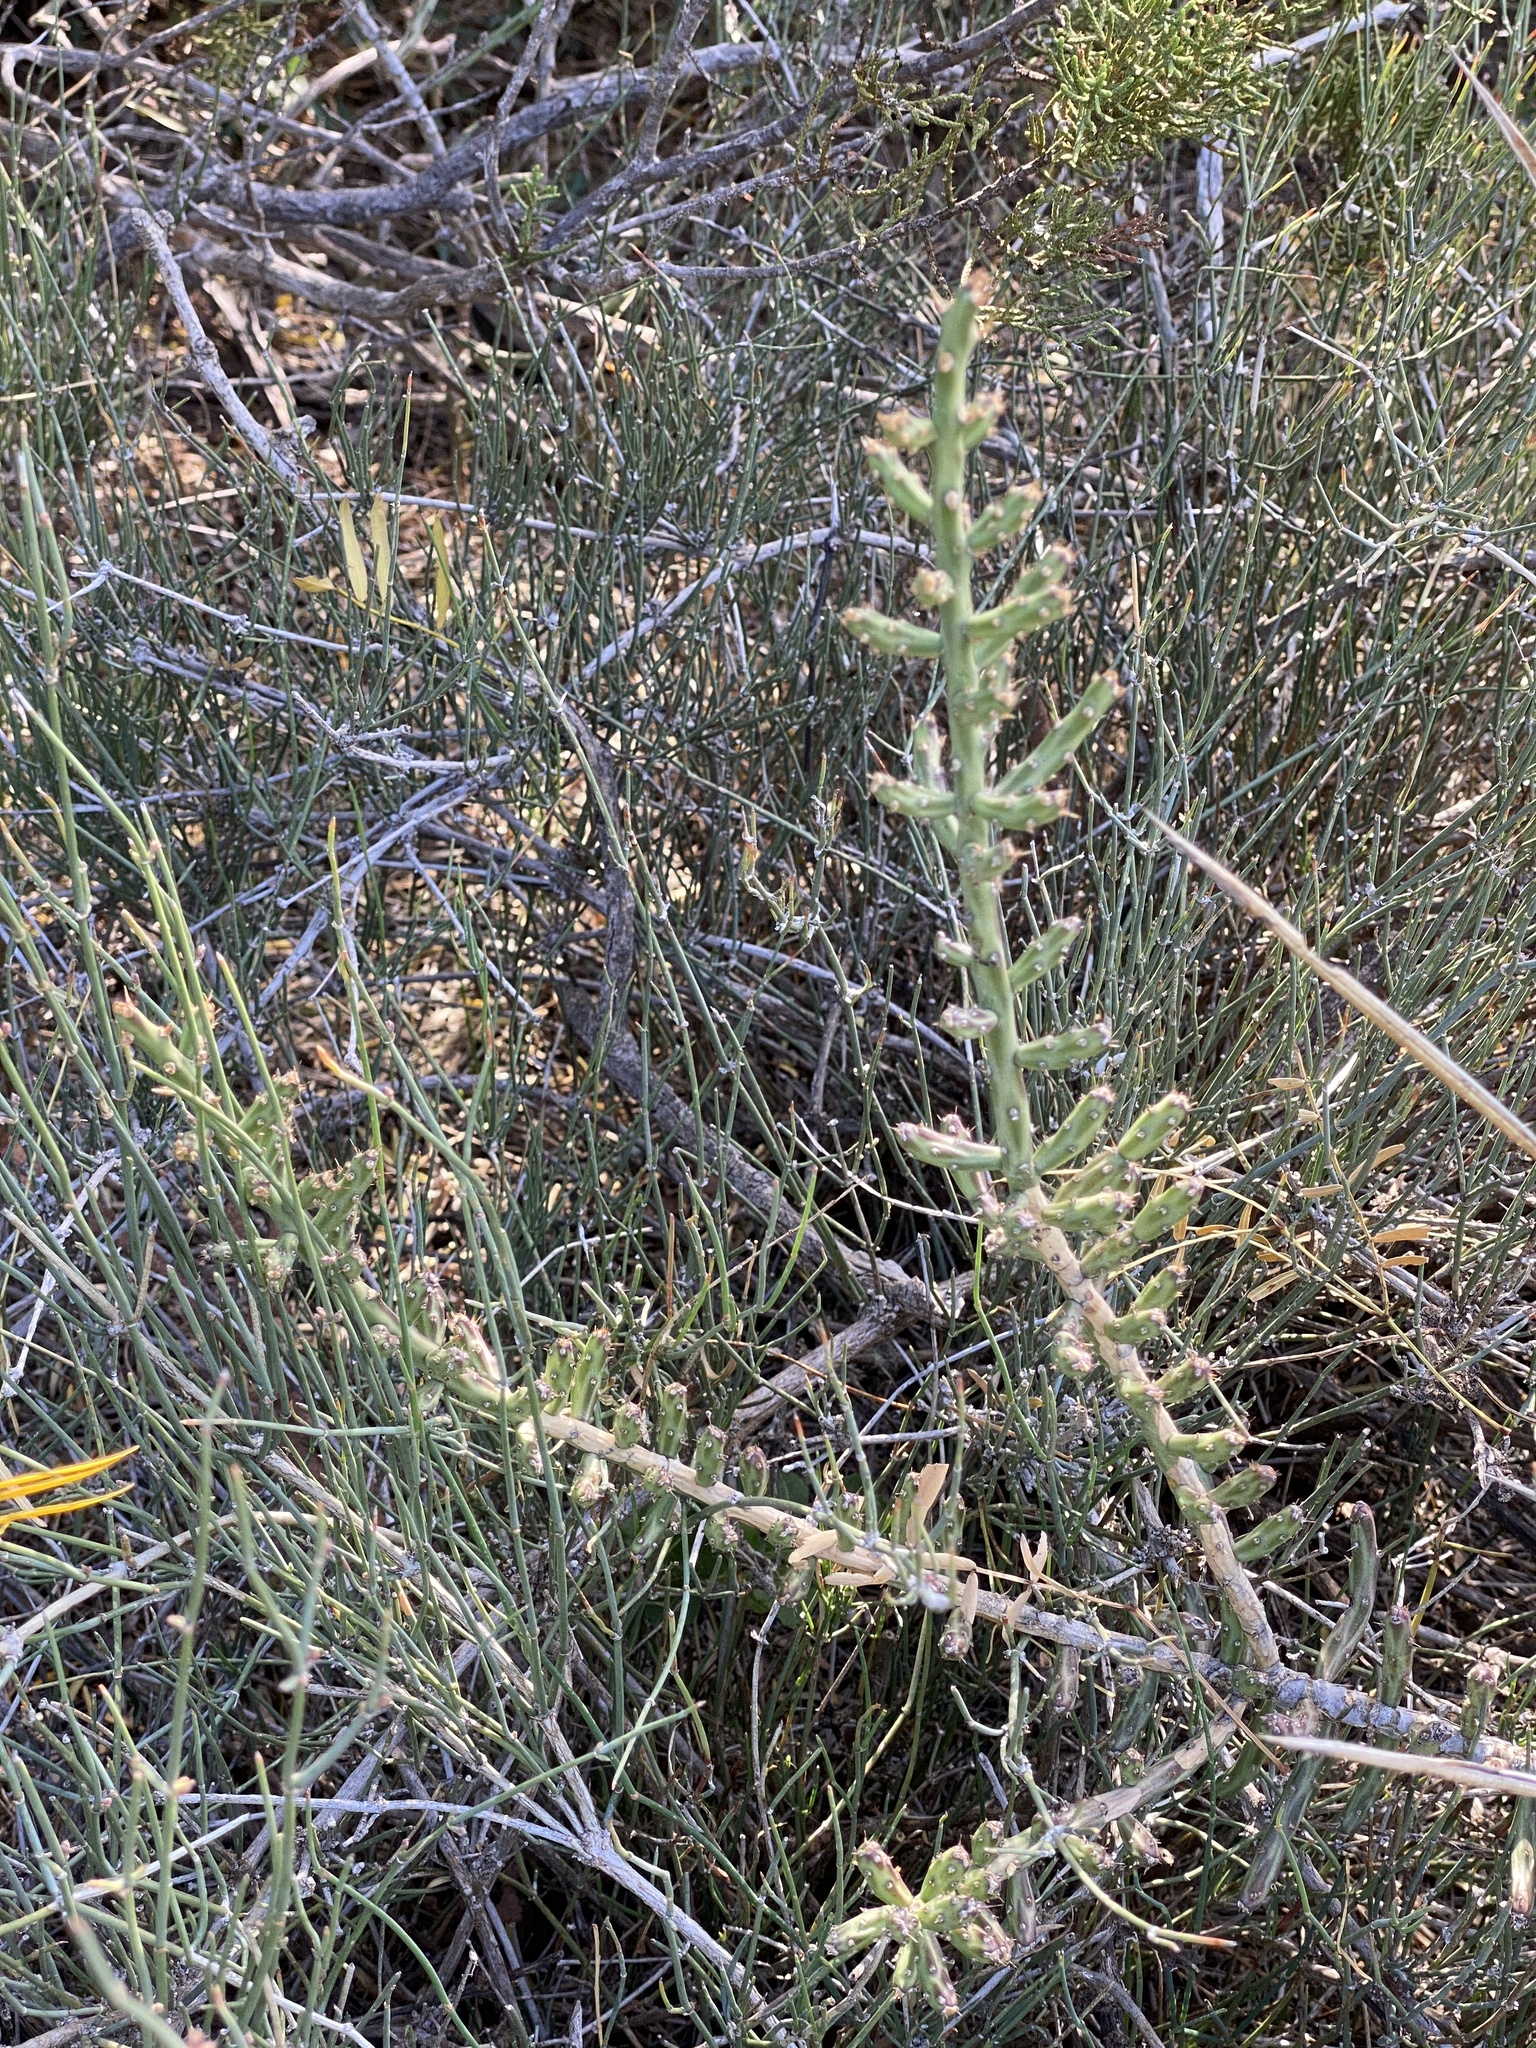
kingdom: Plantae
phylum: Tracheophyta
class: Magnoliopsida
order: Caryophyllales
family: Cactaceae
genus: Cylindropuntia
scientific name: Cylindropuntia leptocaulis
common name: Christmas cactus
